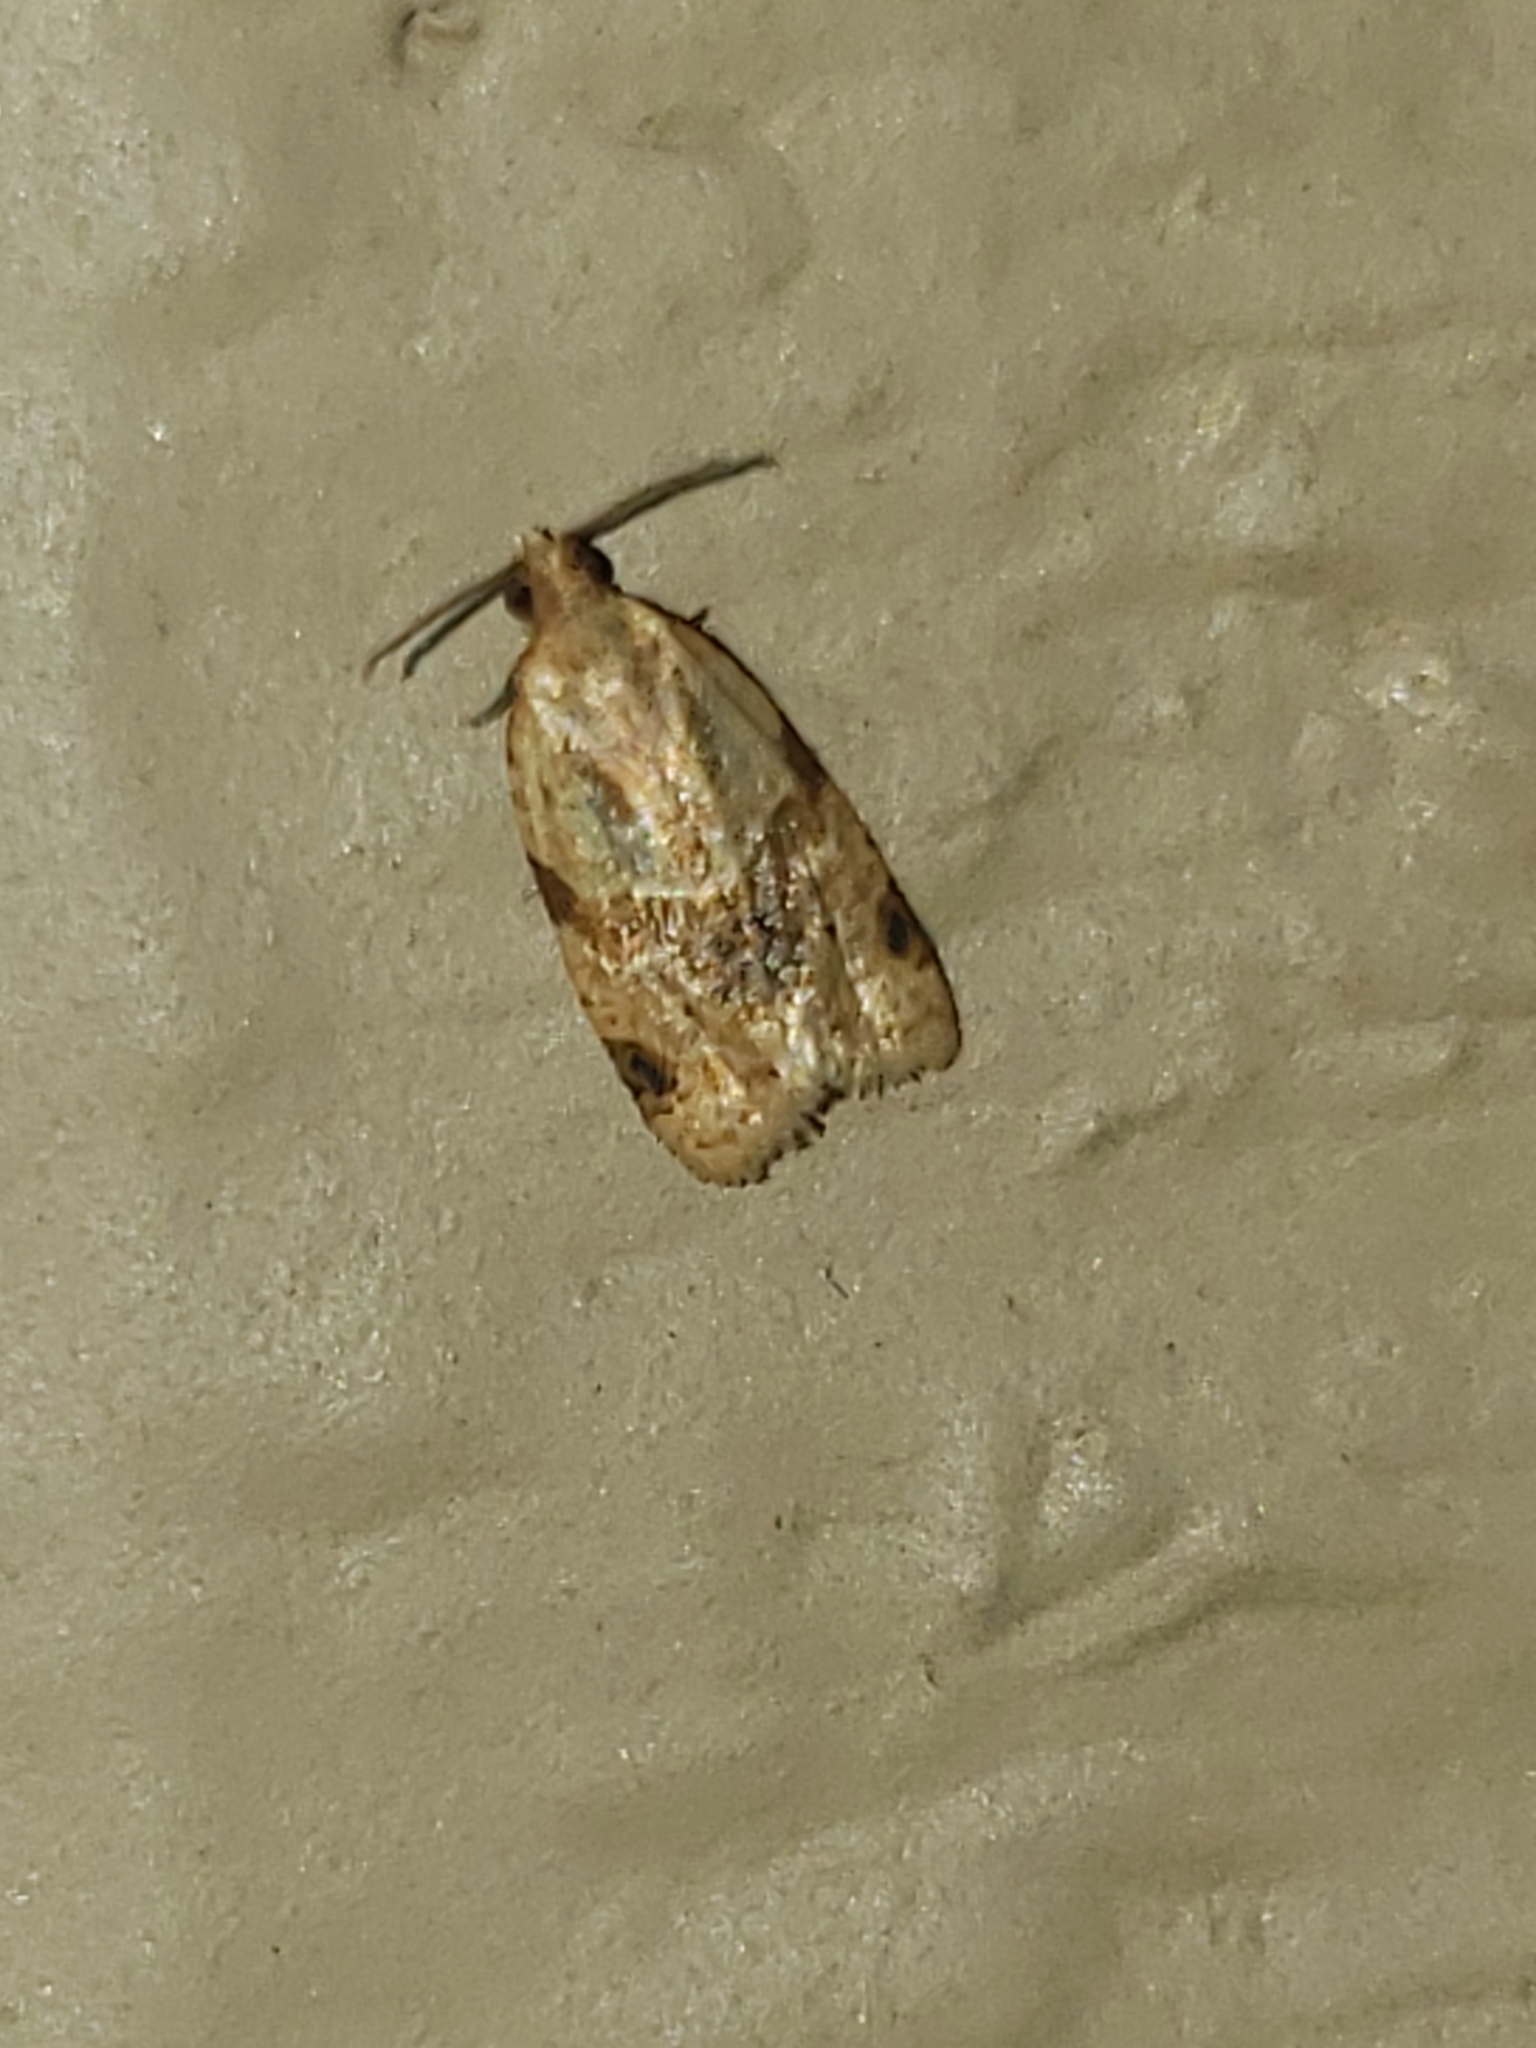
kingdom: Animalia
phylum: Arthropoda
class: Insecta
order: Lepidoptera
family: Tortricidae
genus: Clepsis
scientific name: Clepsis peritana
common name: Garden tortrix
